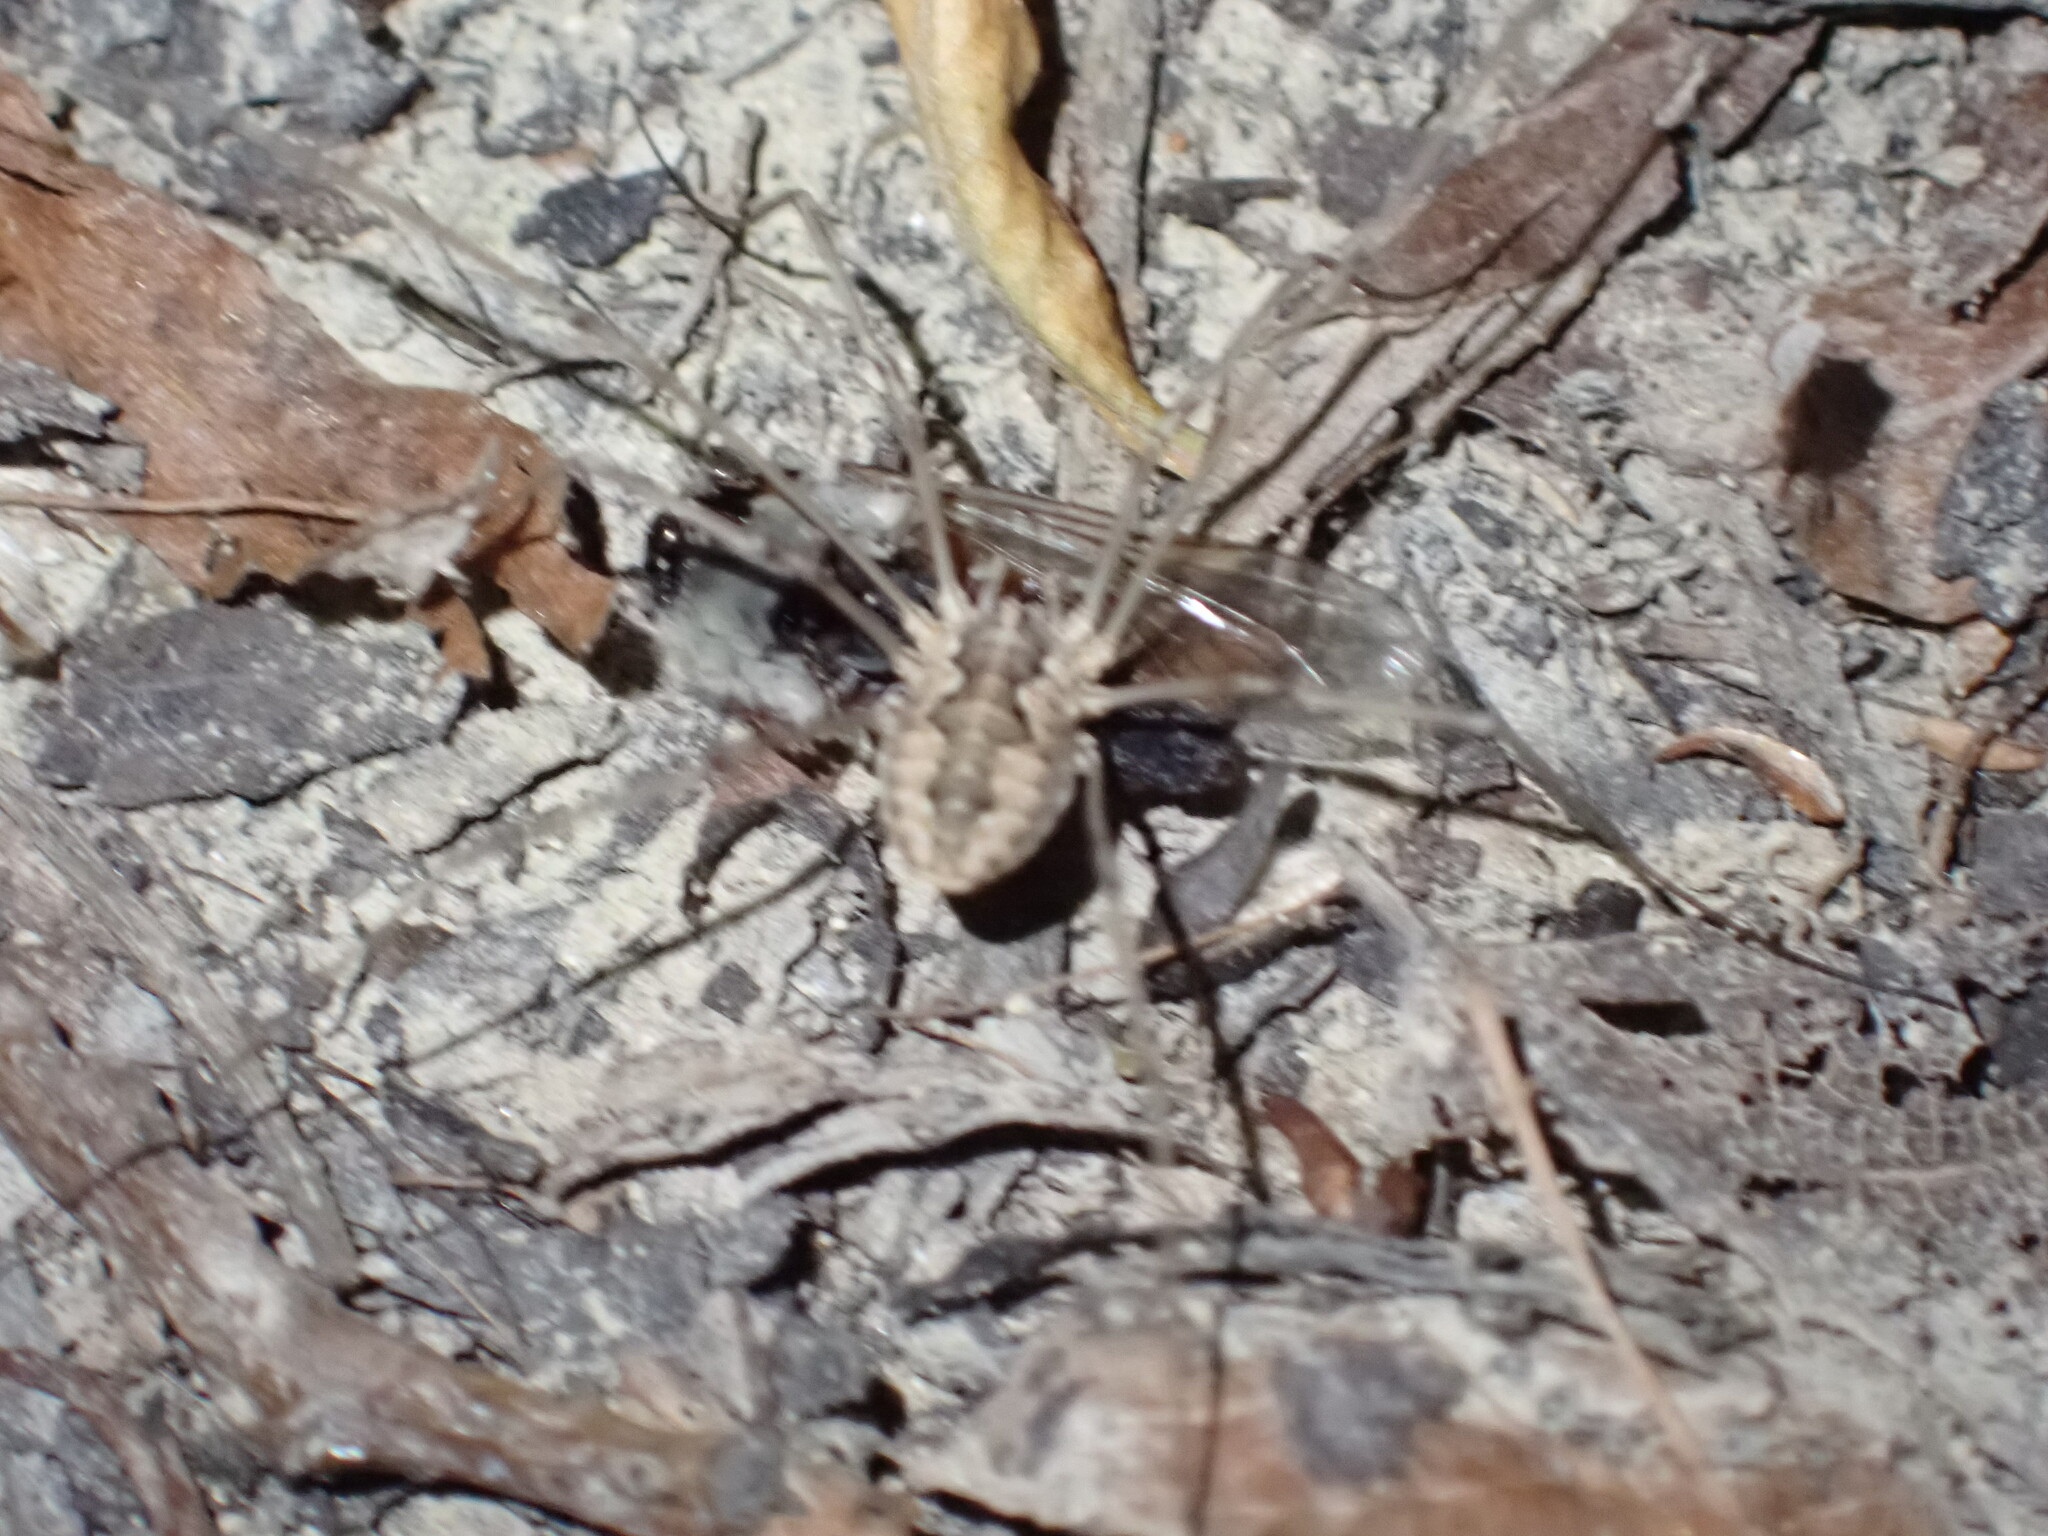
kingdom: Animalia
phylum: Arthropoda
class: Arachnida
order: Opiliones
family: Phalangiidae
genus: Phalangium
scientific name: Phalangium opilio
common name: Daddy longleg
